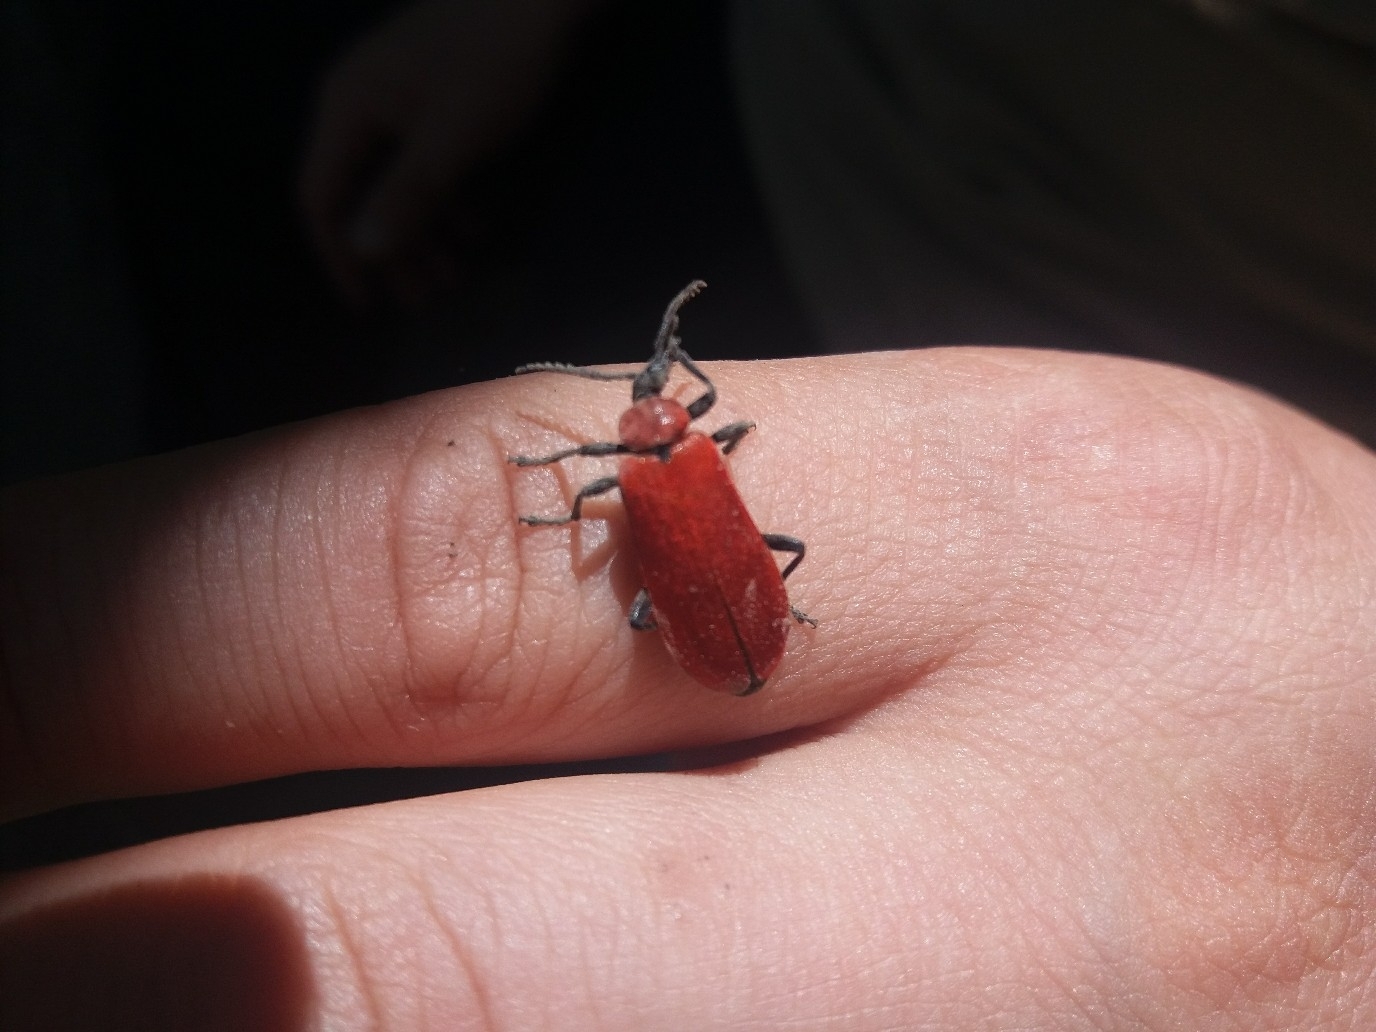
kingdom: Animalia
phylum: Arthropoda
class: Insecta
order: Coleoptera
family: Pyrochroidae
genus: Pyrochroa
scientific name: Pyrochroa coccinea
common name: Black-headed cardinal beetle
